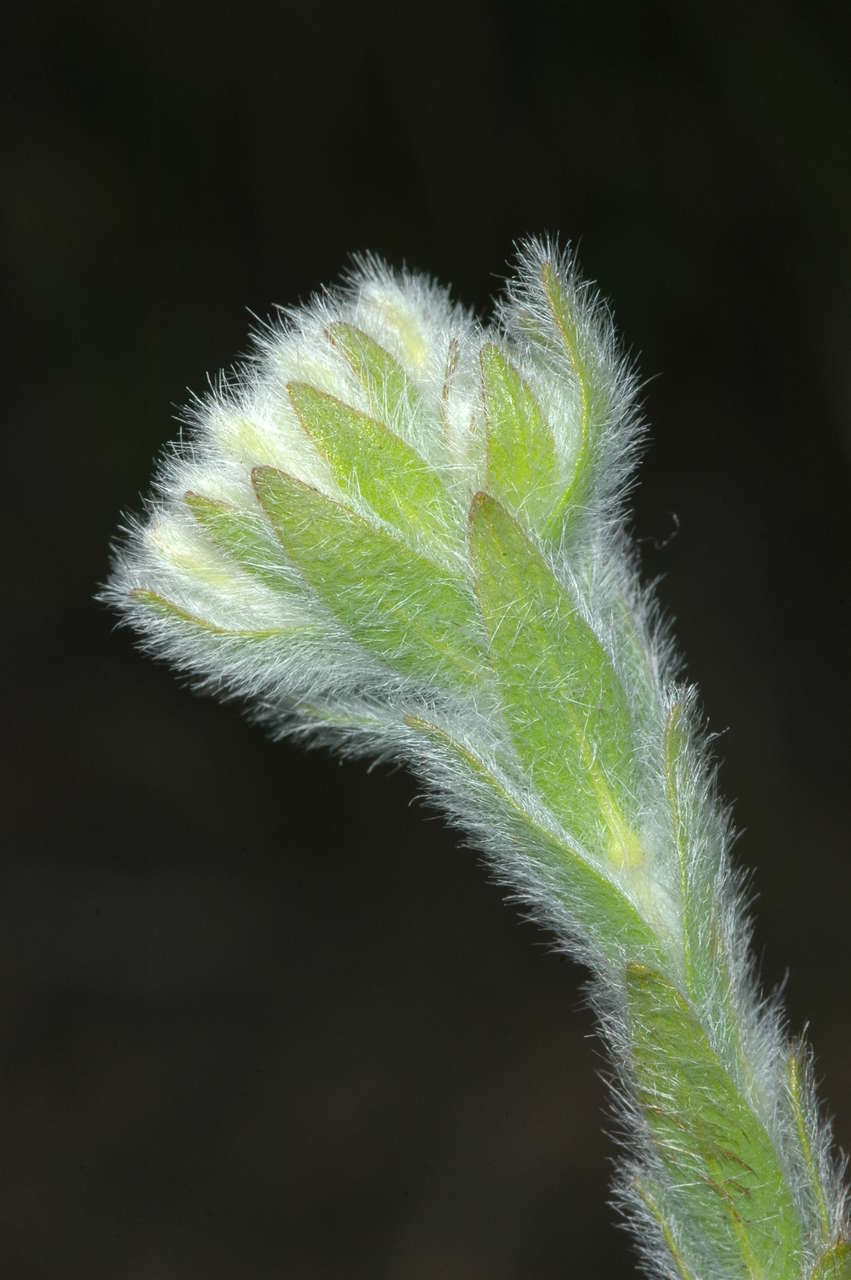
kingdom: Plantae
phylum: Tracheophyta
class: Magnoliopsida
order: Malvales
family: Thymelaeaceae
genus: Pimelea
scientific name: Pimelea octophylla
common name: Woolly riceflower
